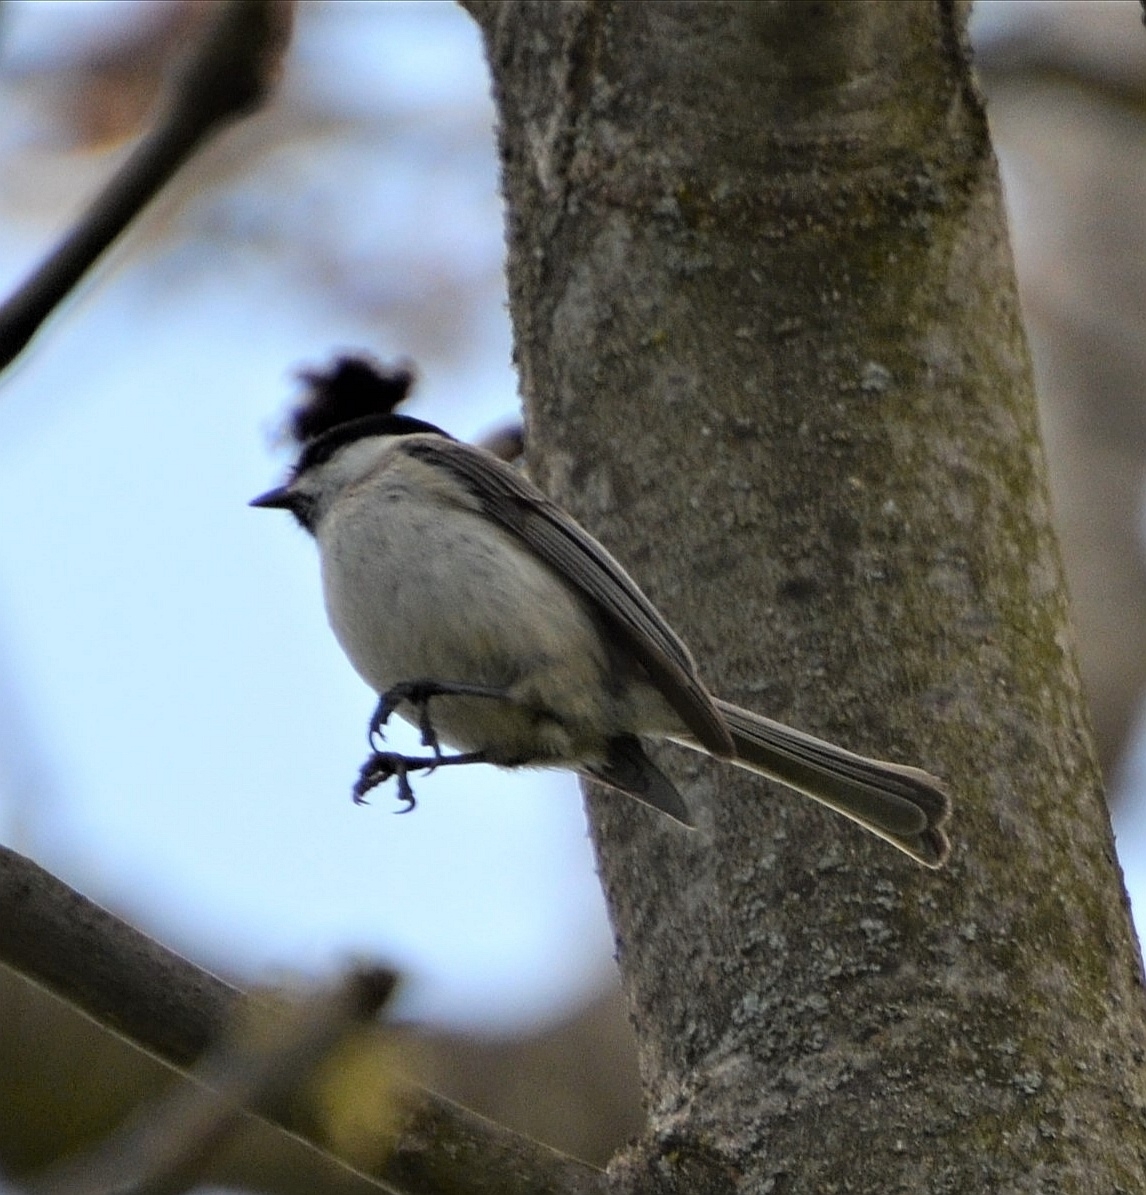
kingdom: Animalia
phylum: Chordata
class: Aves
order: Passeriformes
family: Paridae
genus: Poecile
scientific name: Poecile palustris
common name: Marsh tit
